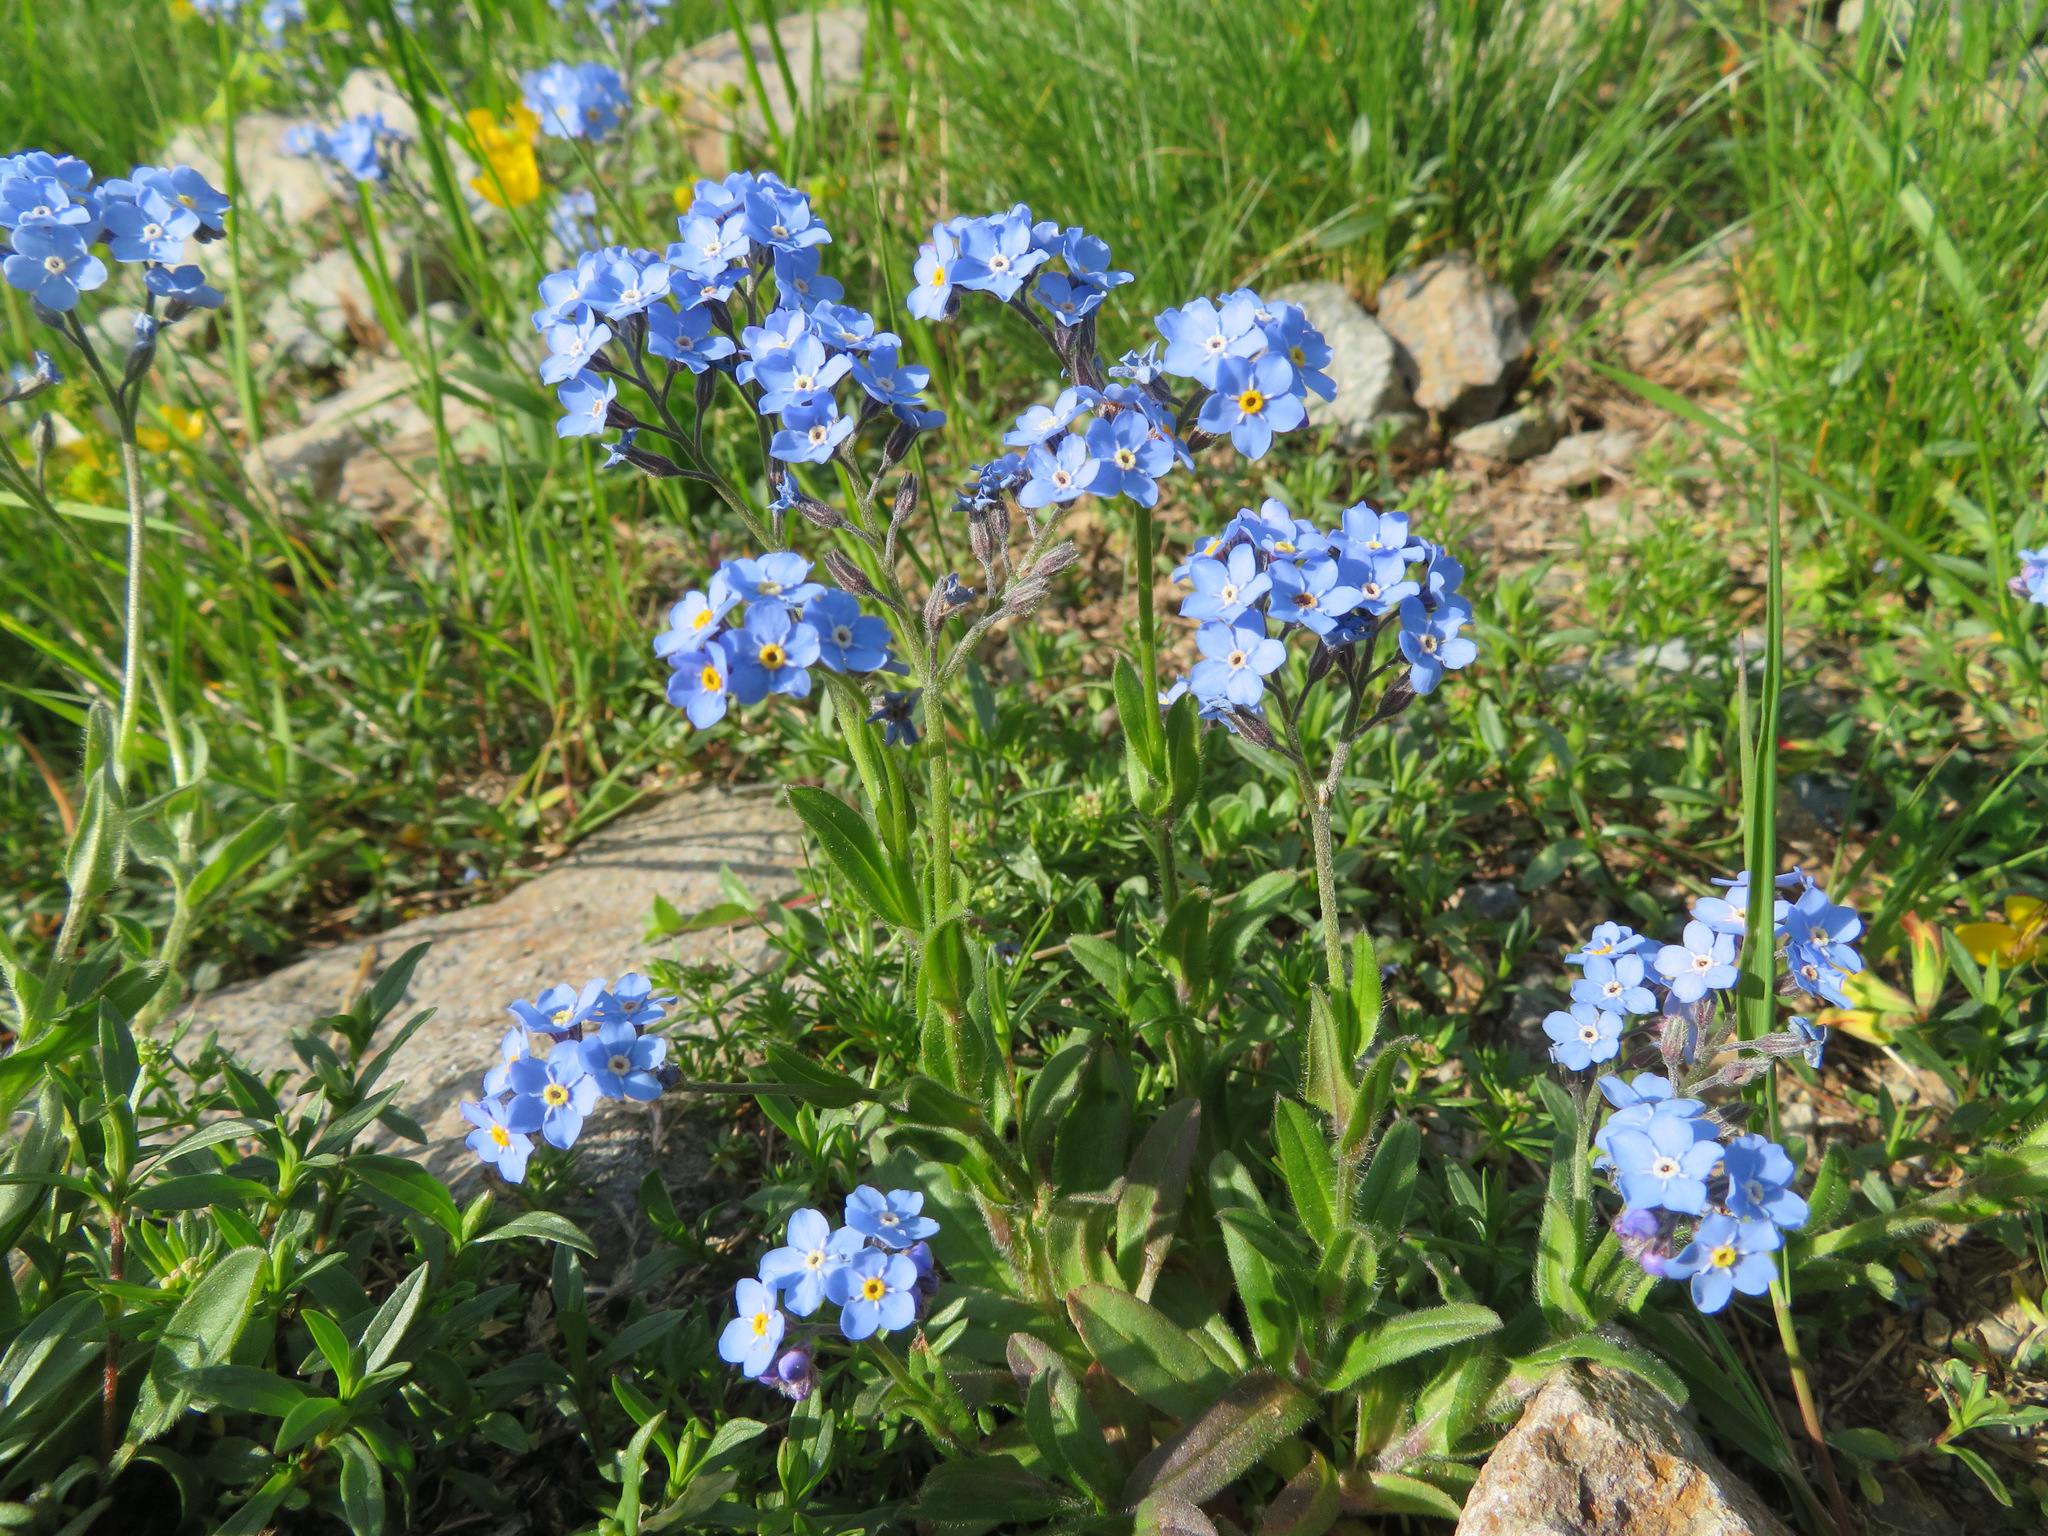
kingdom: Plantae
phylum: Tracheophyta
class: Magnoliopsida
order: Boraginales
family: Boraginaceae
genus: Myosotis
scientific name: Myosotis alpestris
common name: Alpine forget-me-not
